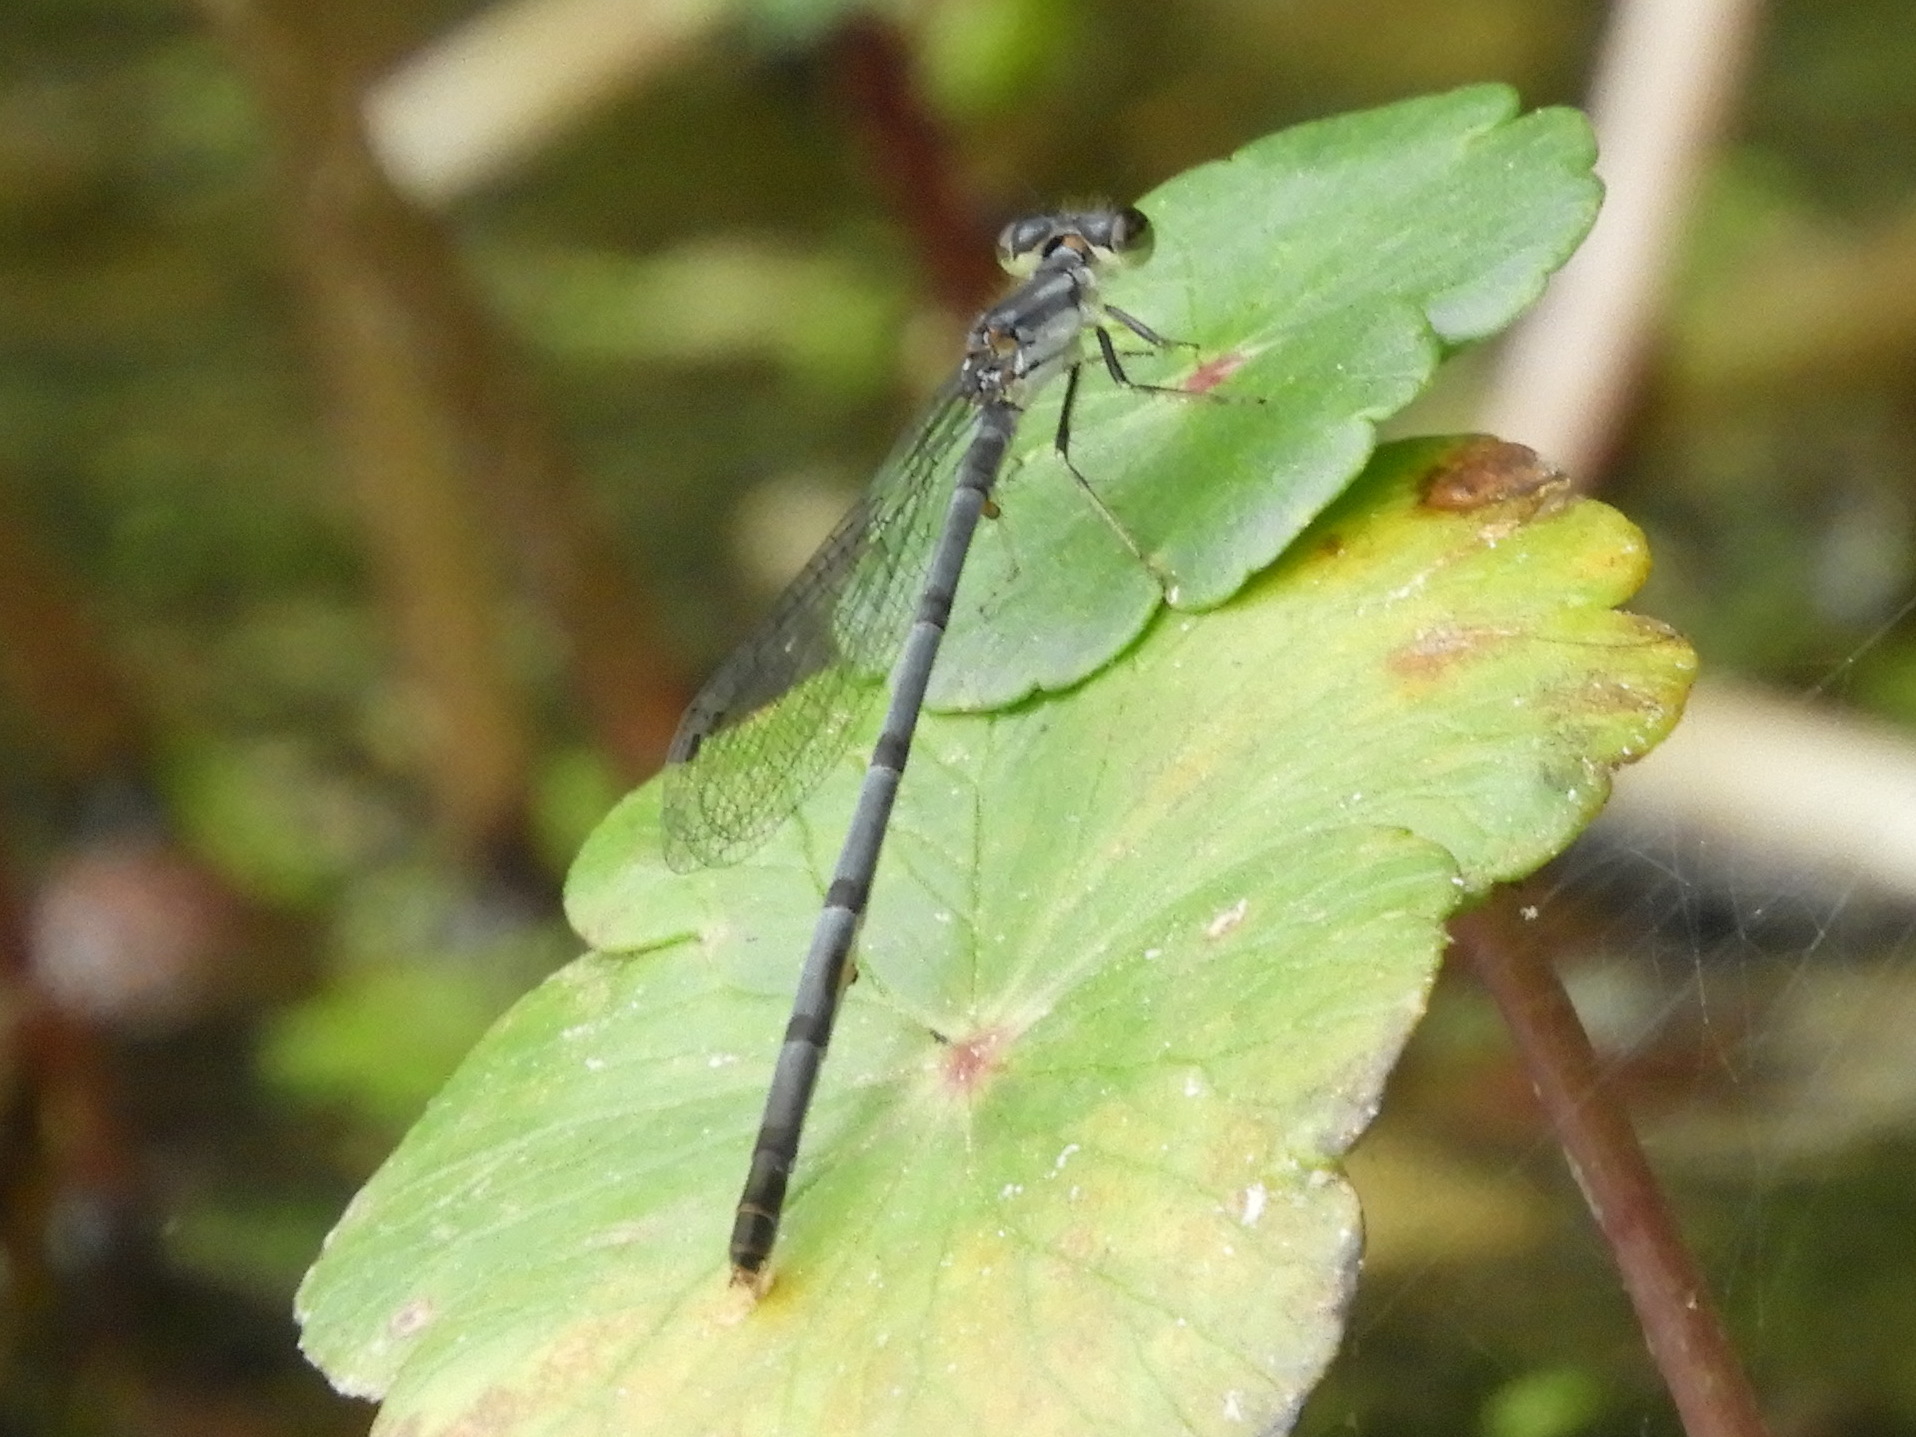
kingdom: Animalia
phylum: Arthropoda
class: Insecta
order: Odonata
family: Coenagrionidae
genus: Ischnura
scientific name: Ischnura posita
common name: Fragile forktail
